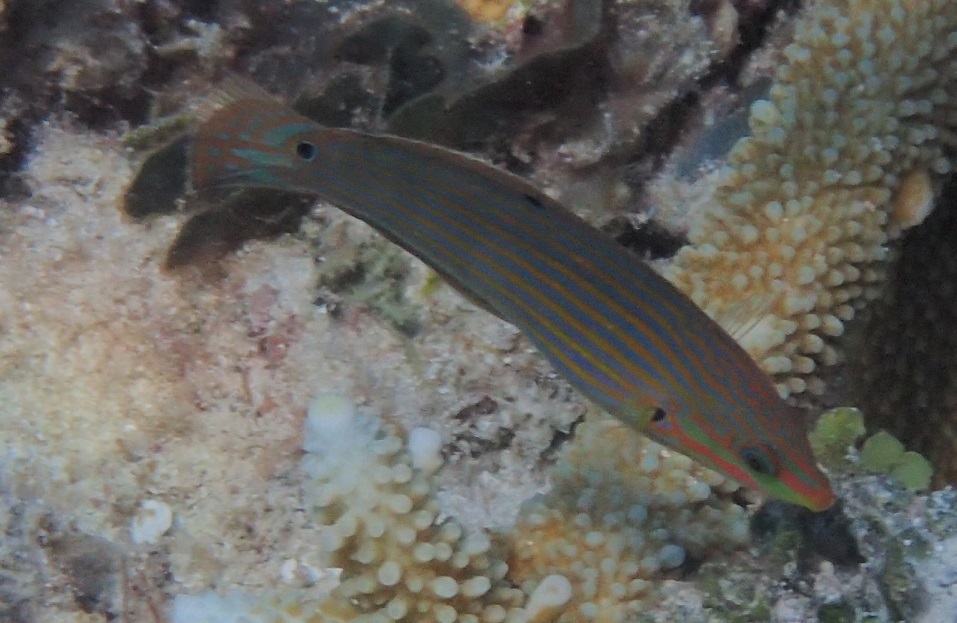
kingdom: Animalia
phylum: Chordata
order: Perciformes
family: Labridae
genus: Halichoeres
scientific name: Halichoeres melanurus
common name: Hoeven's wrasse
